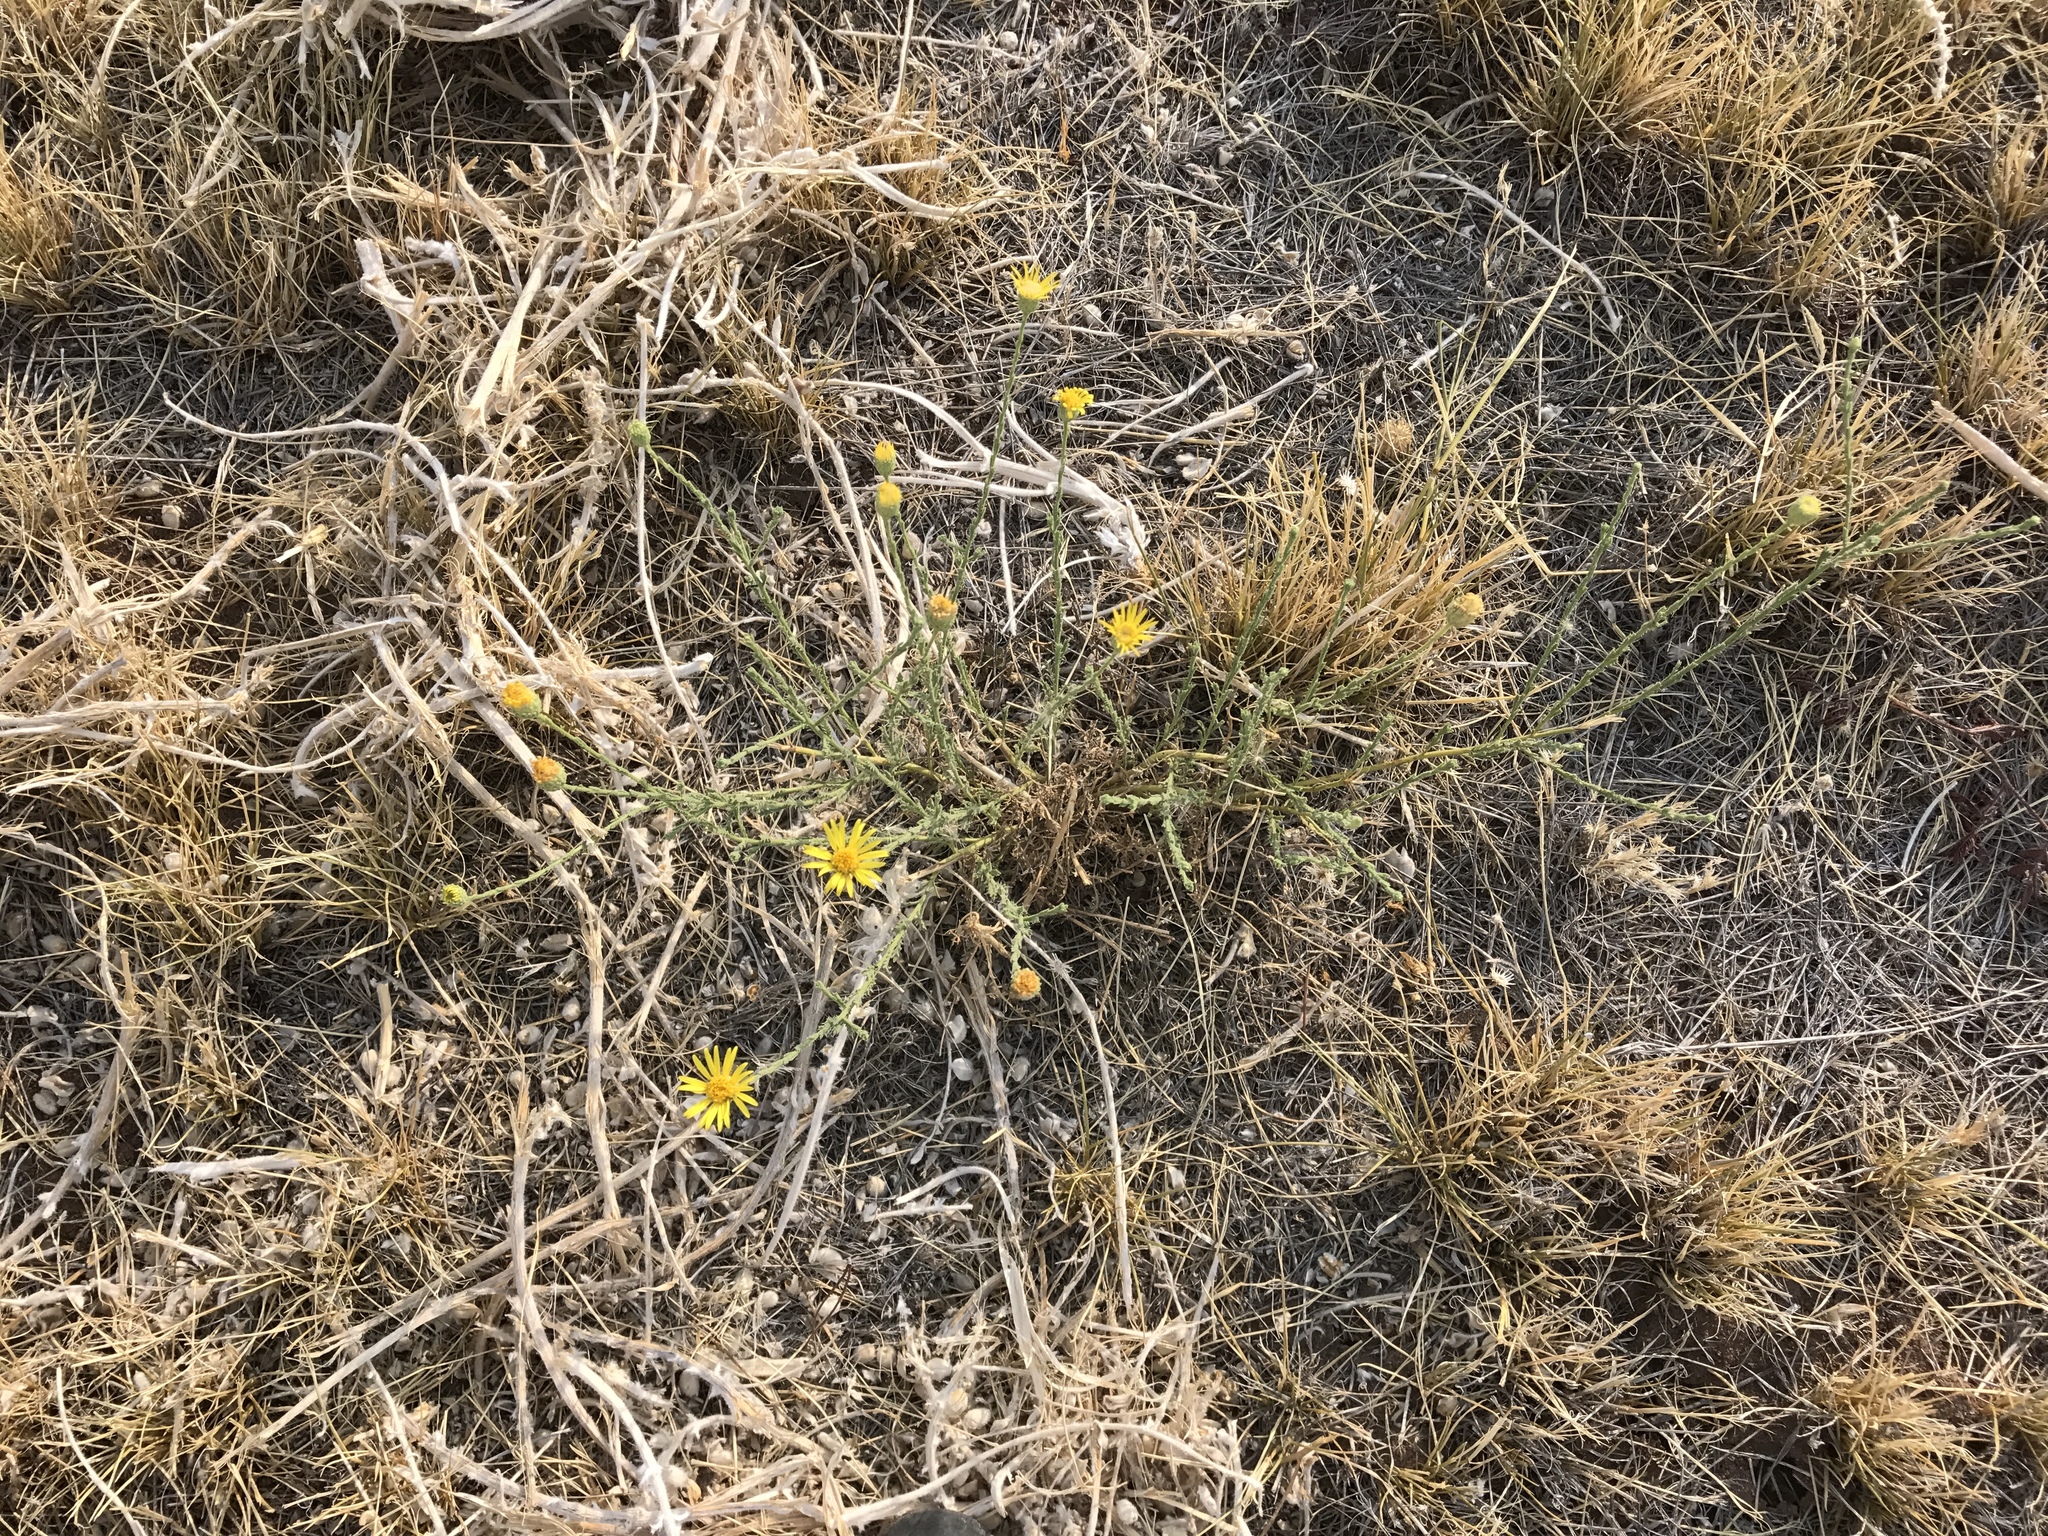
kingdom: Plantae
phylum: Tracheophyta
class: Magnoliopsida
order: Asterales
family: Asteraceae
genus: Xanthisma
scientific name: Xanthisma spinulosum
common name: Spiny goldenweed
